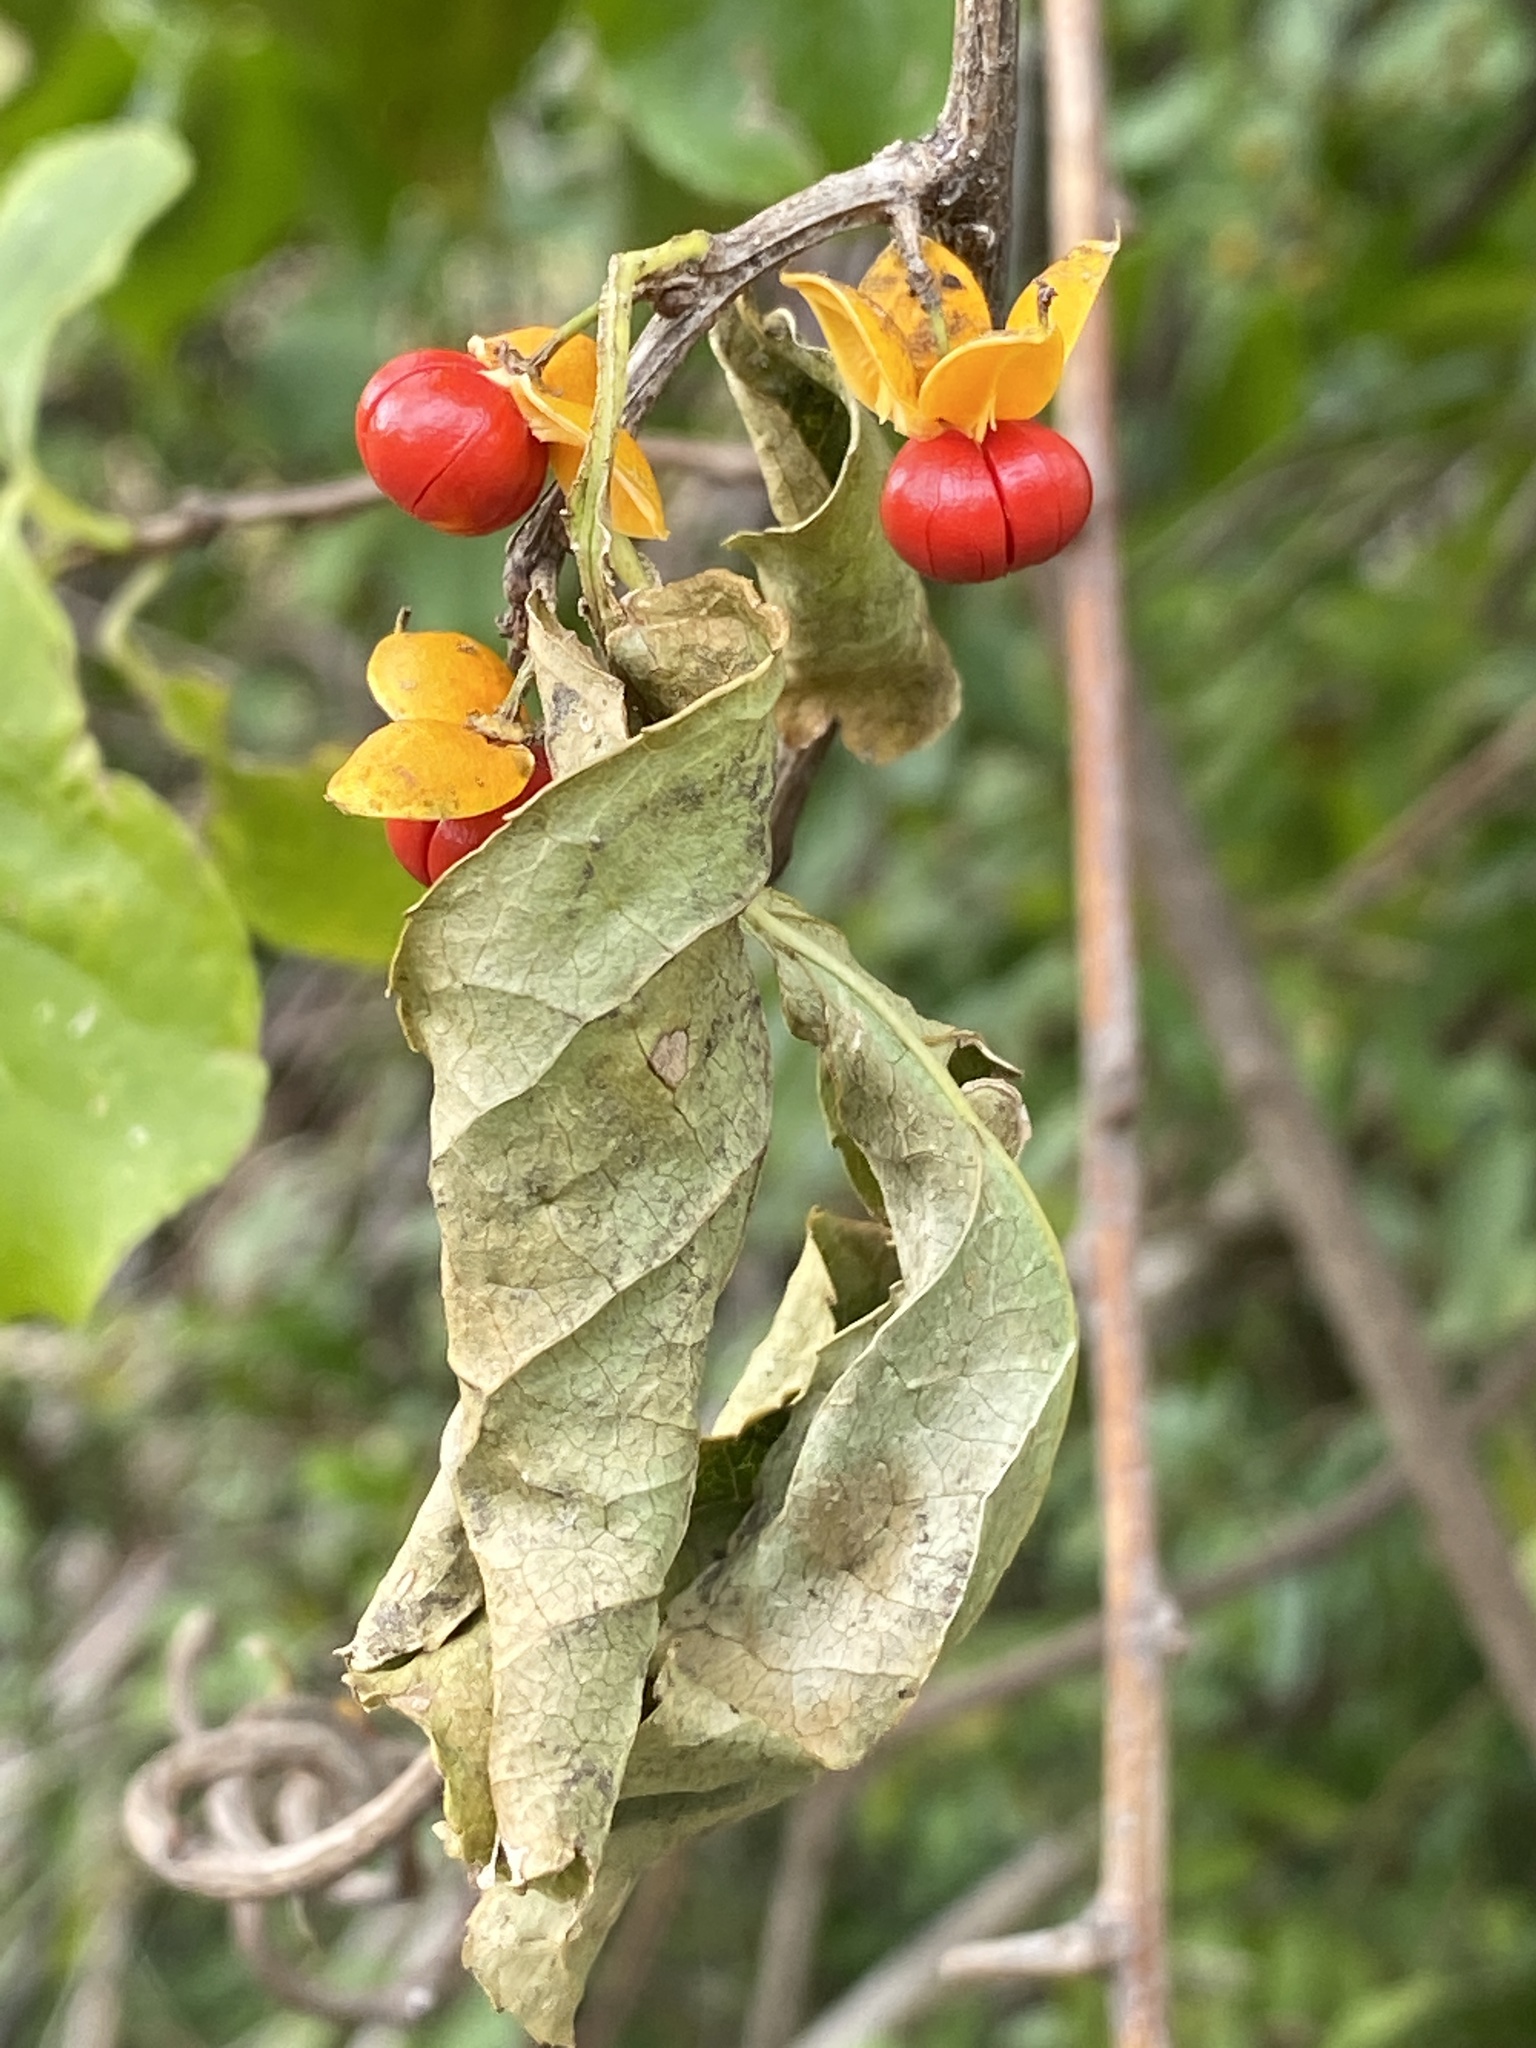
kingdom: Plantae
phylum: Tracheophyta
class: Magnoliopsida
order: Celastrales
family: Celastraceae
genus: Celastrus
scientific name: Celastrus orbiculatus
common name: Oriental bittersweet
